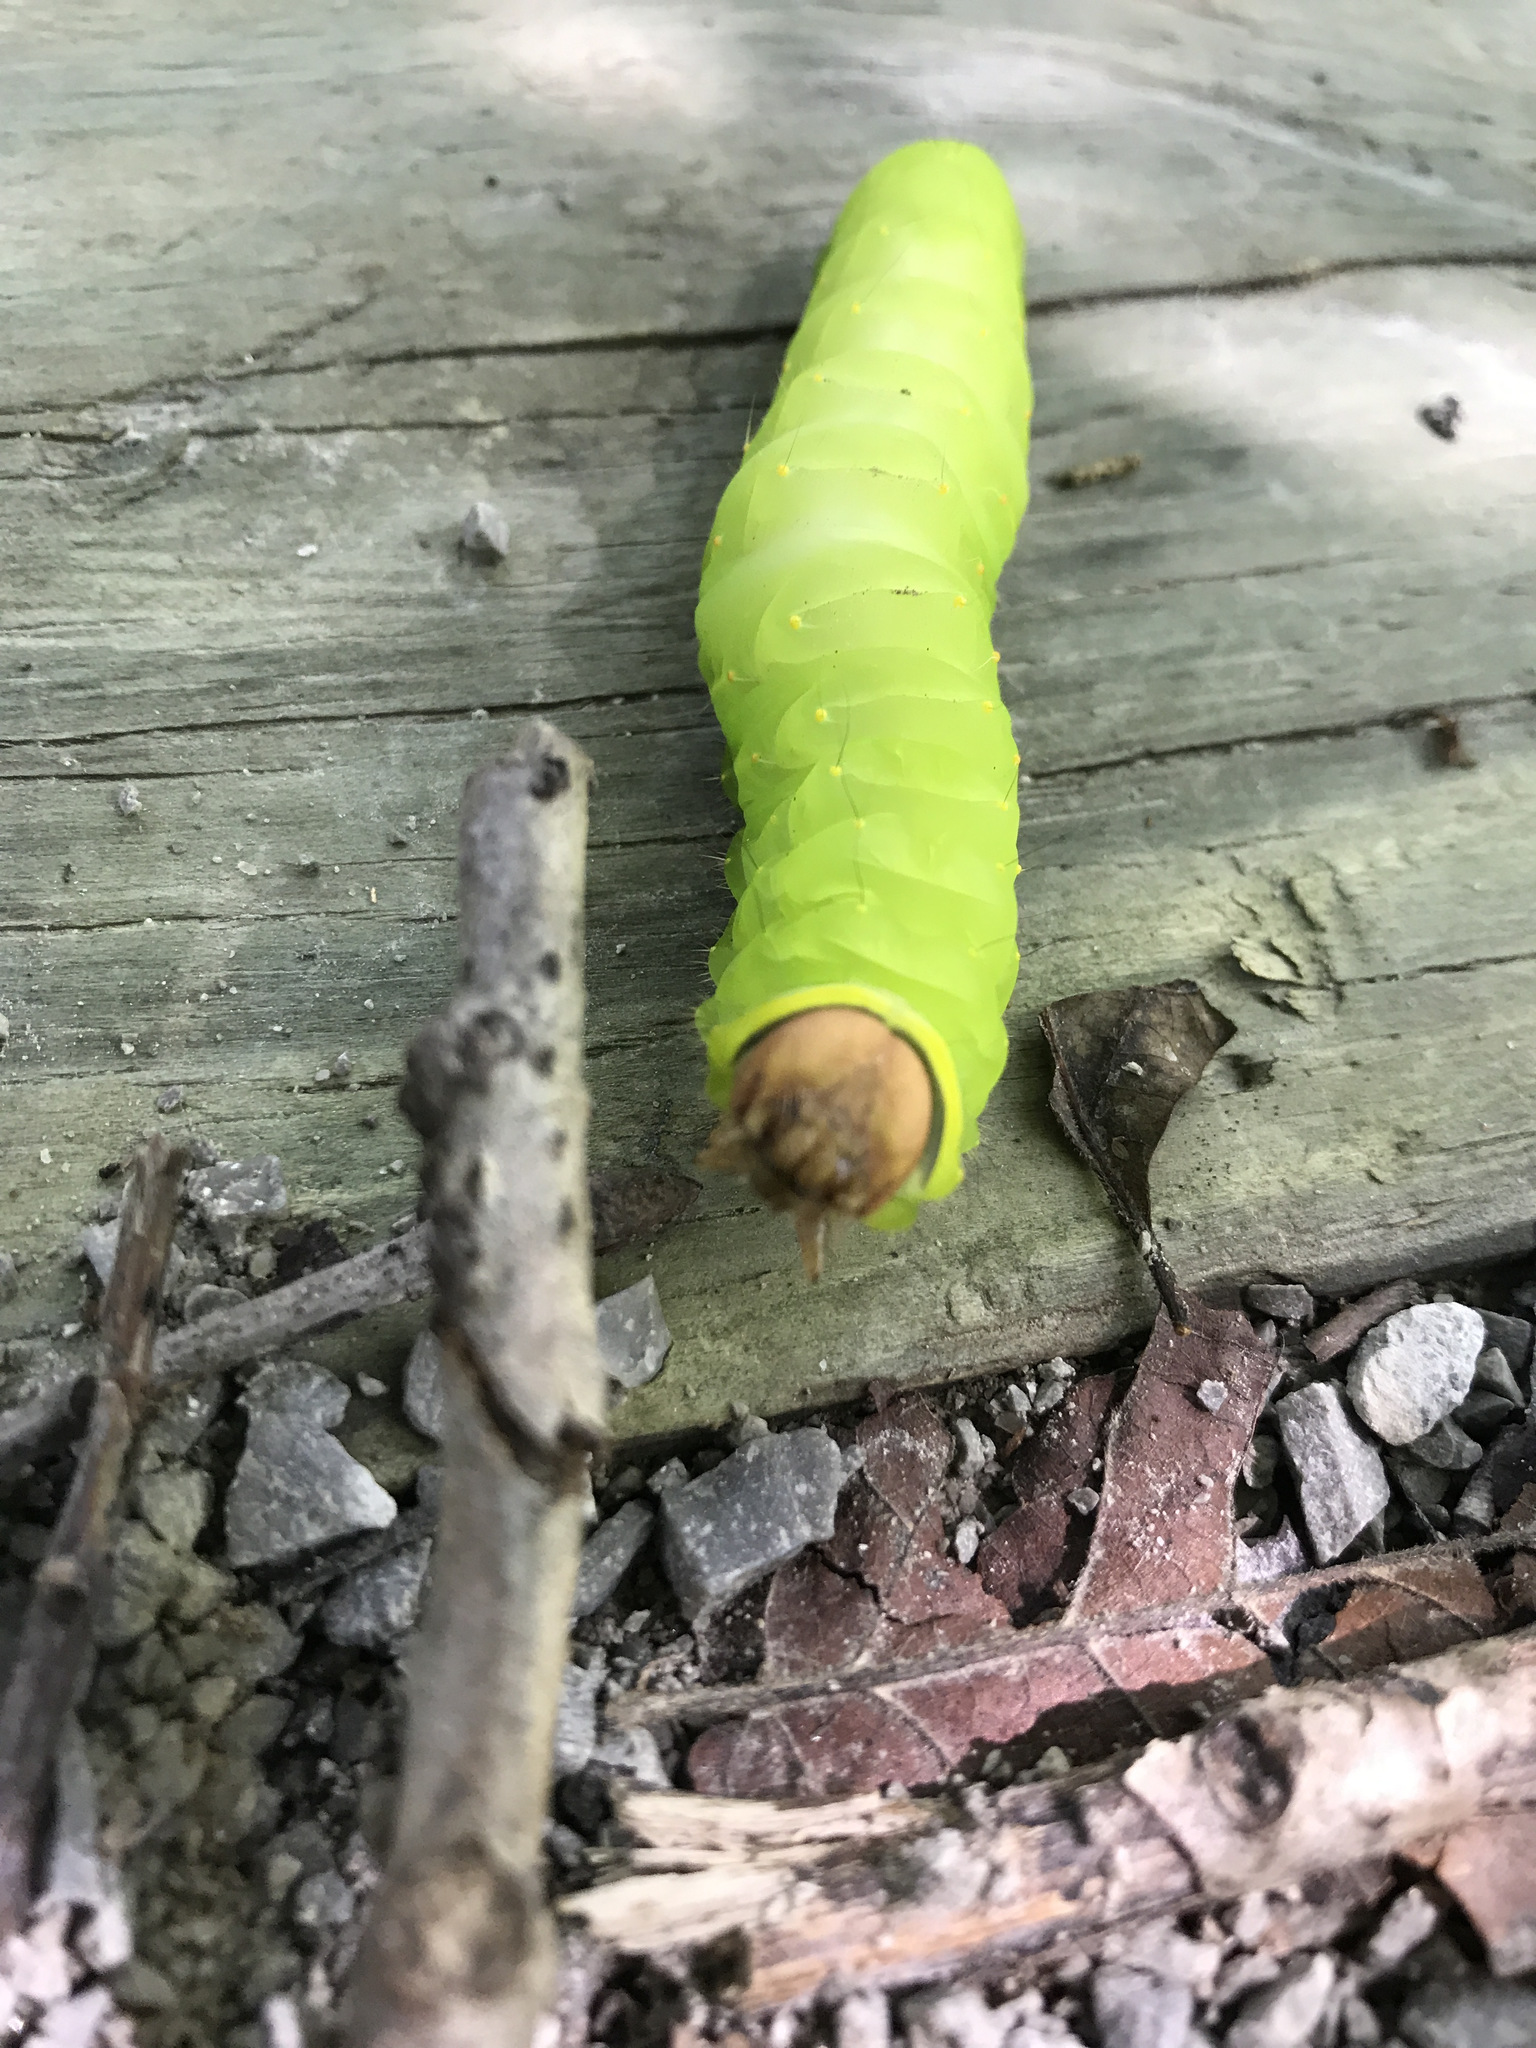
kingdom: Animalia
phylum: Arthropoda
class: Insecta
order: Lepidoptera
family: Saturniidae
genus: Antheraea
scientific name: Antheraea polyphemus
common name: Polyphemus moth
